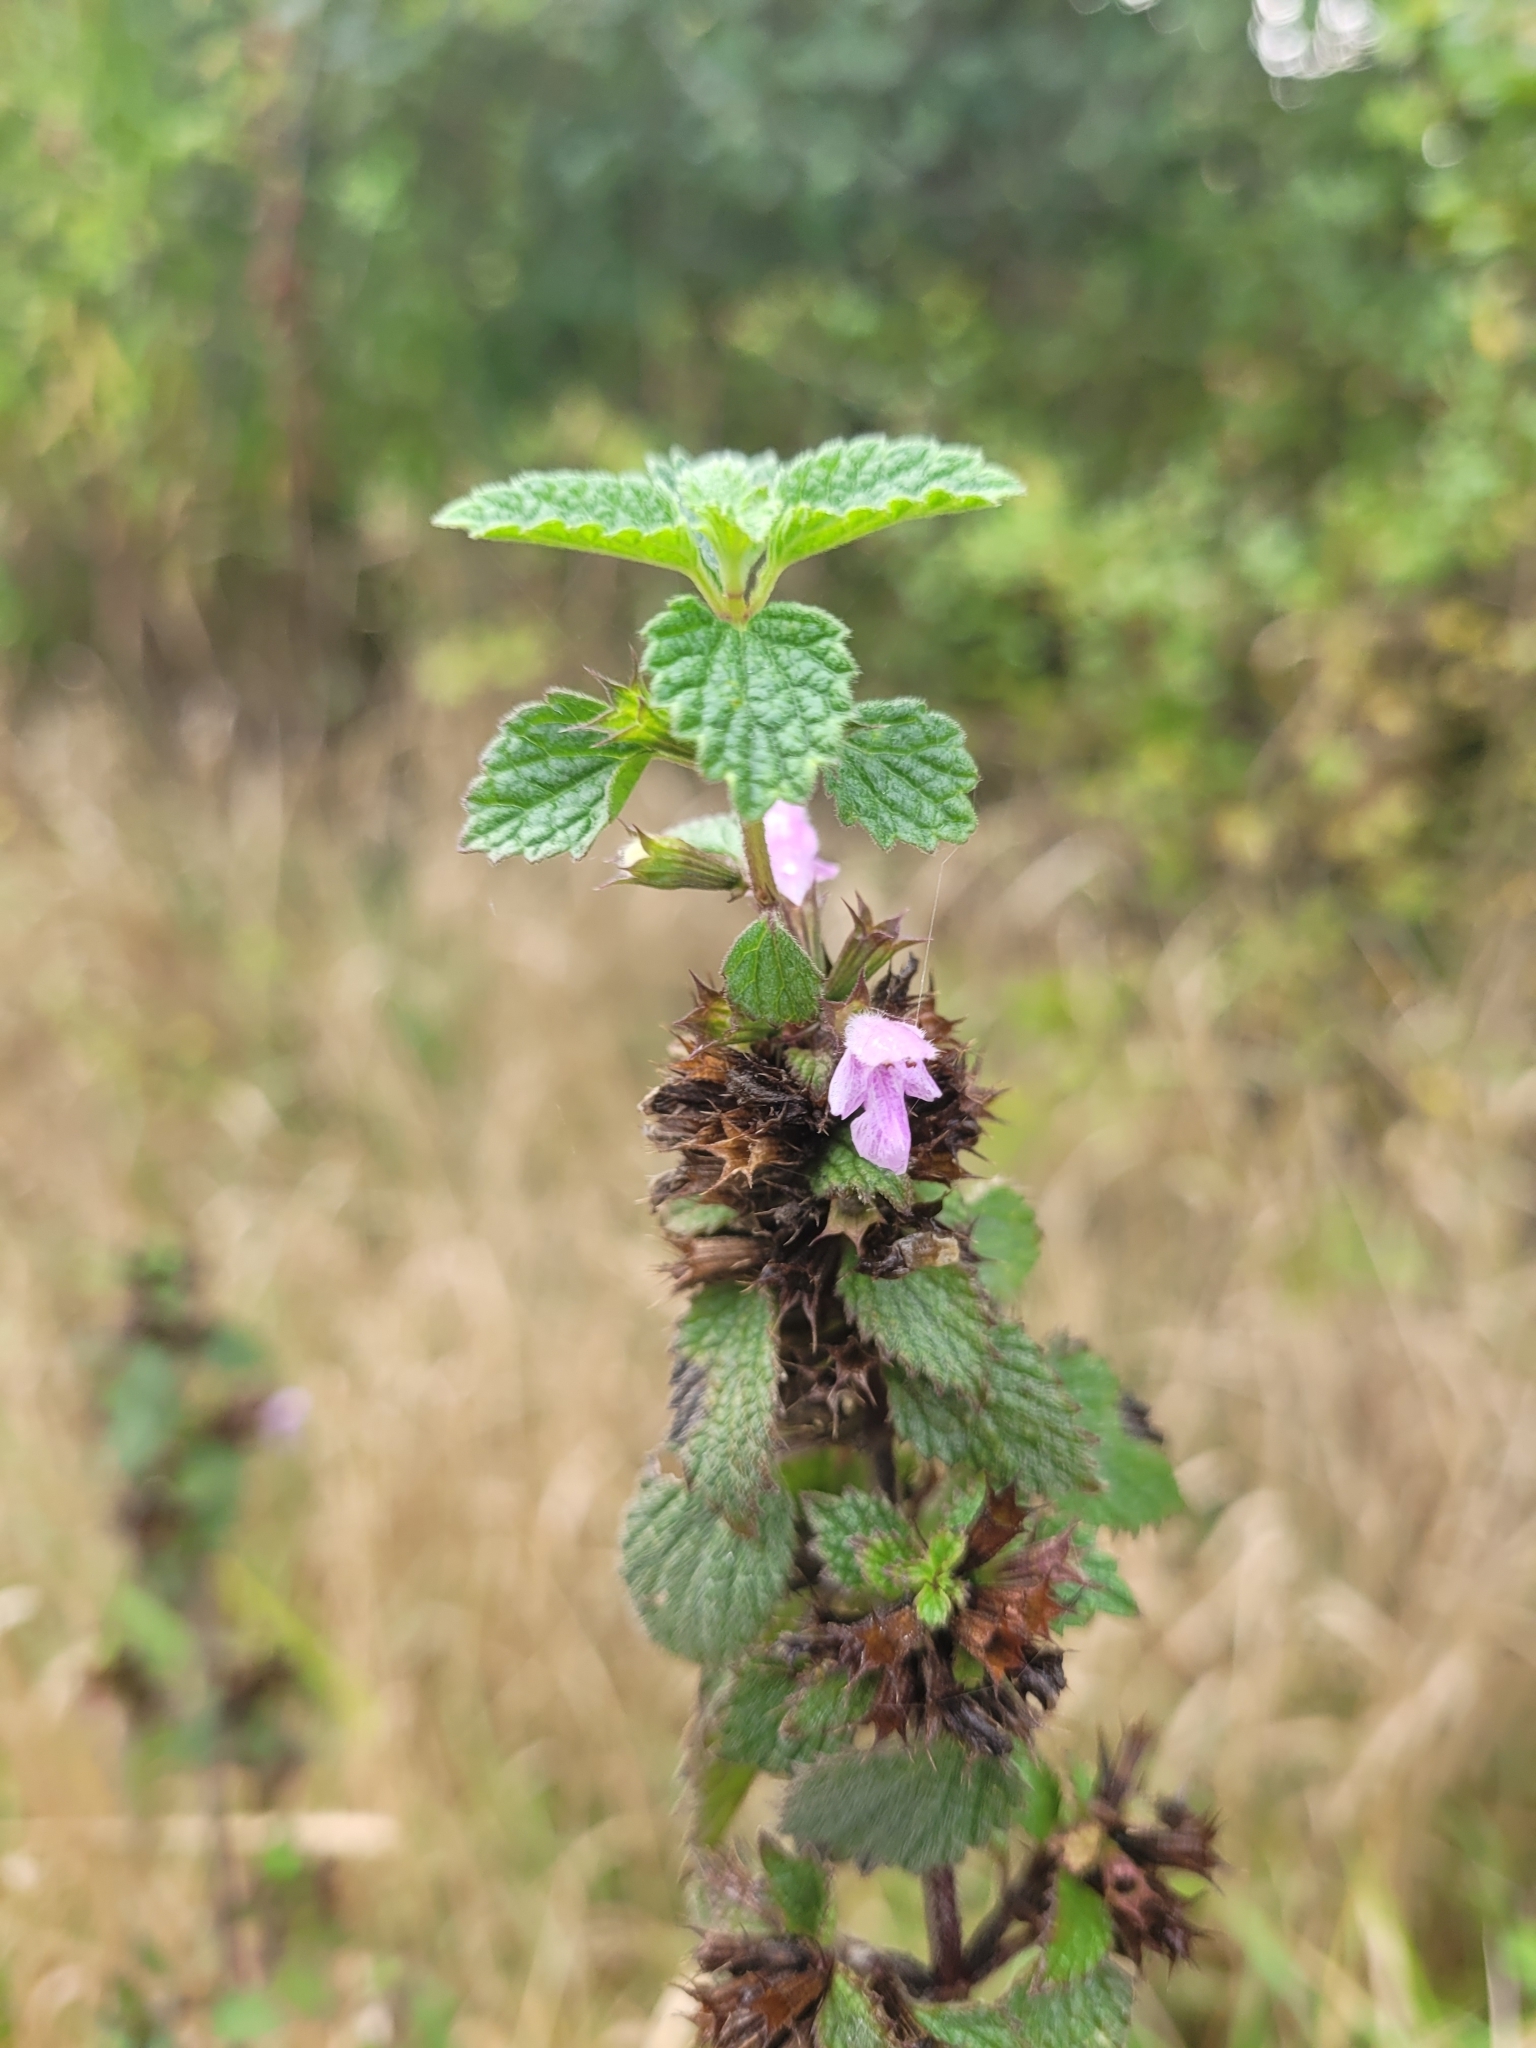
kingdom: Plantae
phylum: Tracheophyta
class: Magnoliopsida
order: Lamiales
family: Lamiaceae
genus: Ballota
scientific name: Ballota nigra
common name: Black horehound
